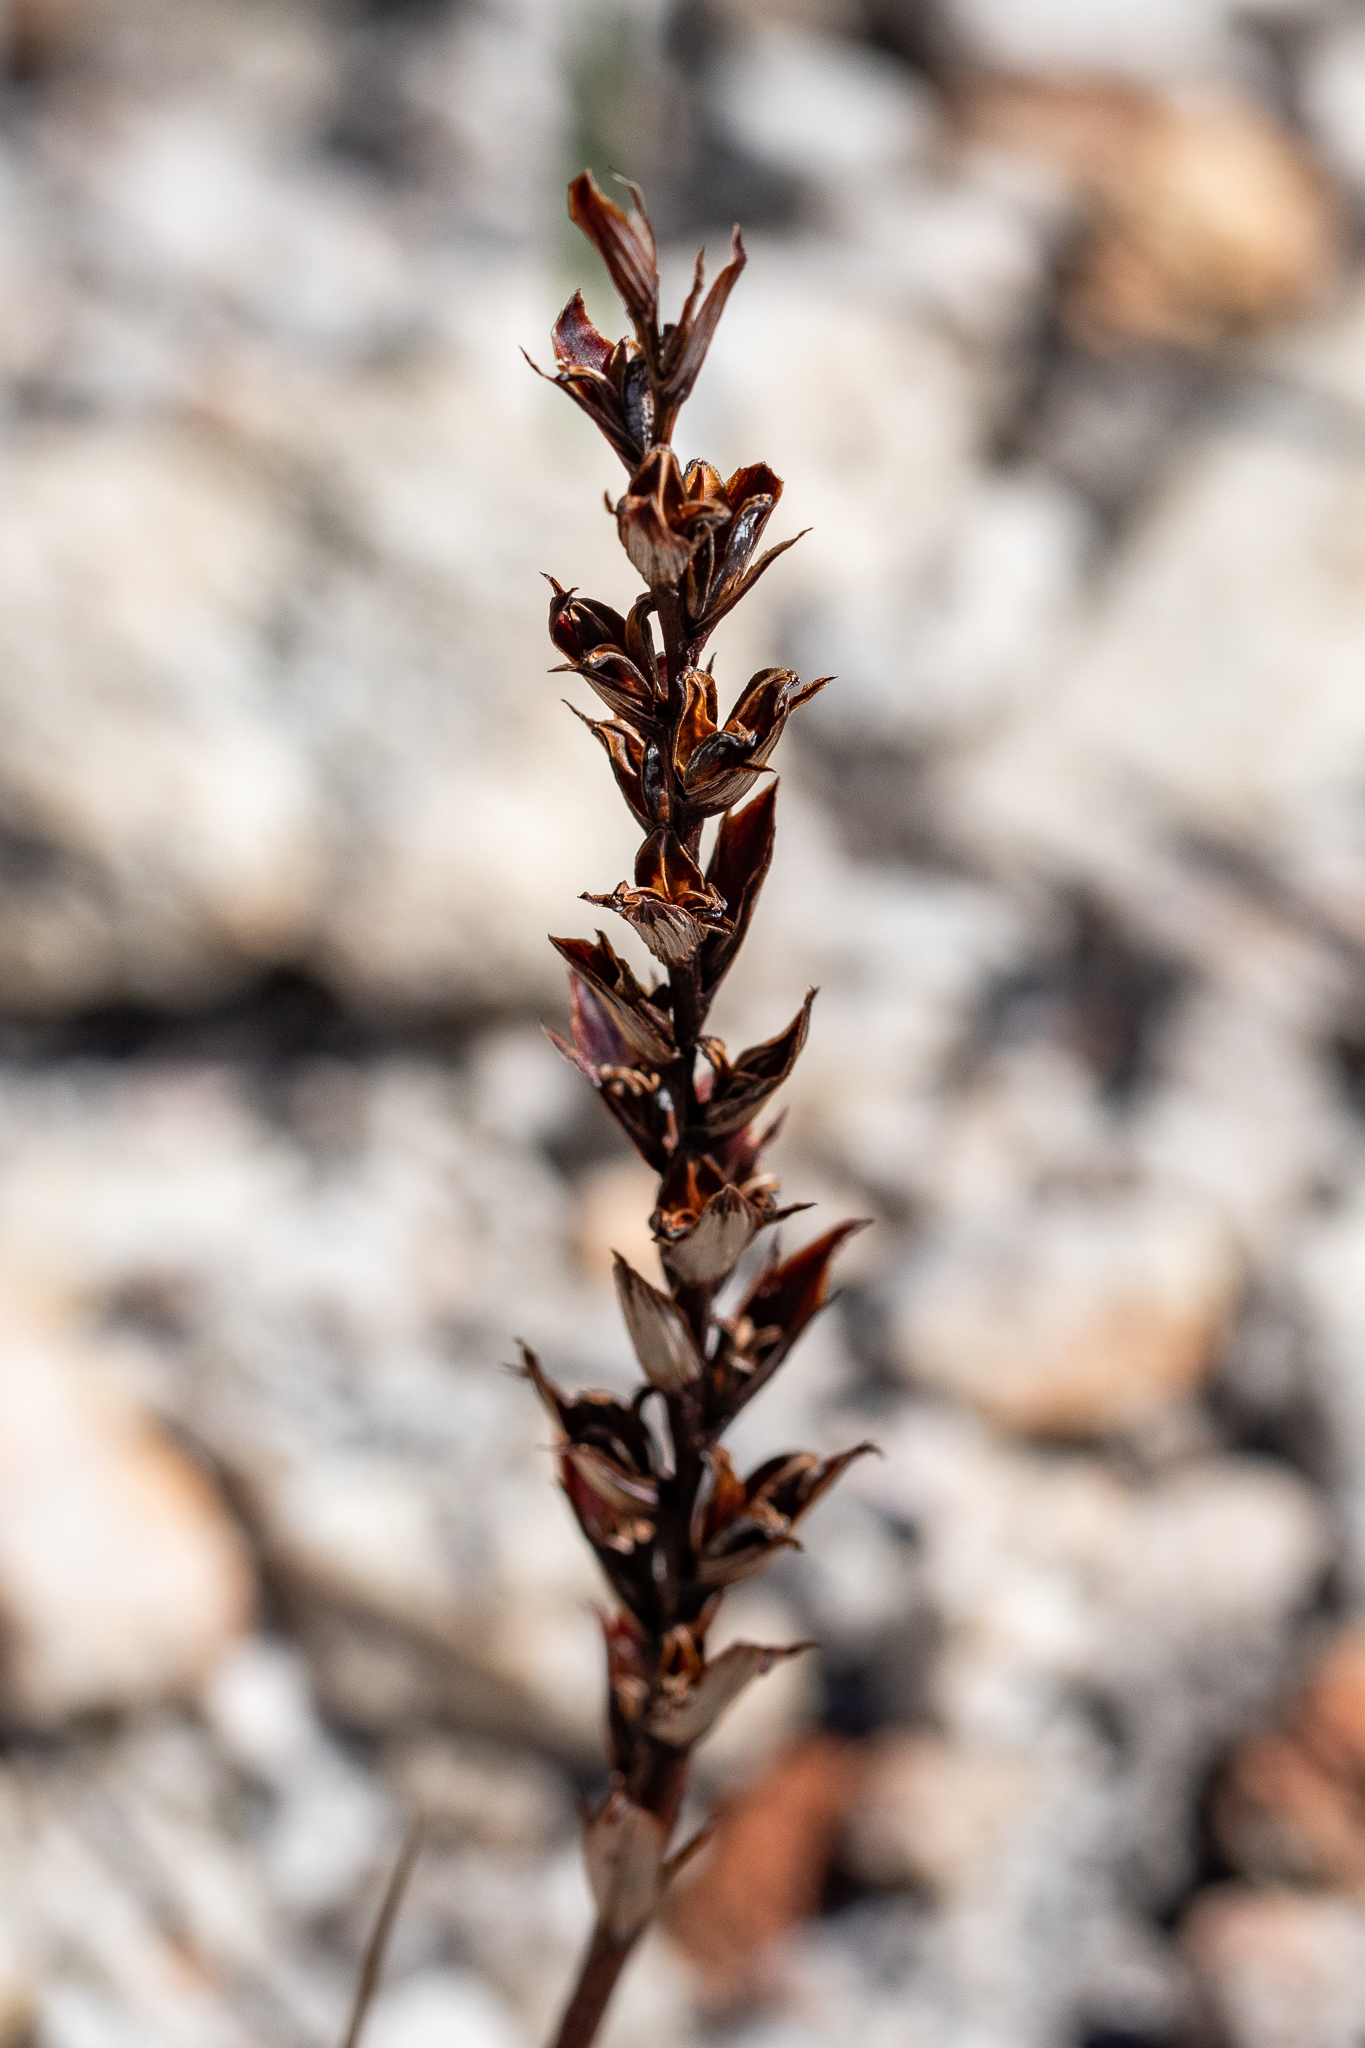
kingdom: Plantae
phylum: Tracheophyta
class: Liliopsida
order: Asparagales
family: Iridaceae
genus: Thereianthus
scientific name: Thereianthus bracteolatus
